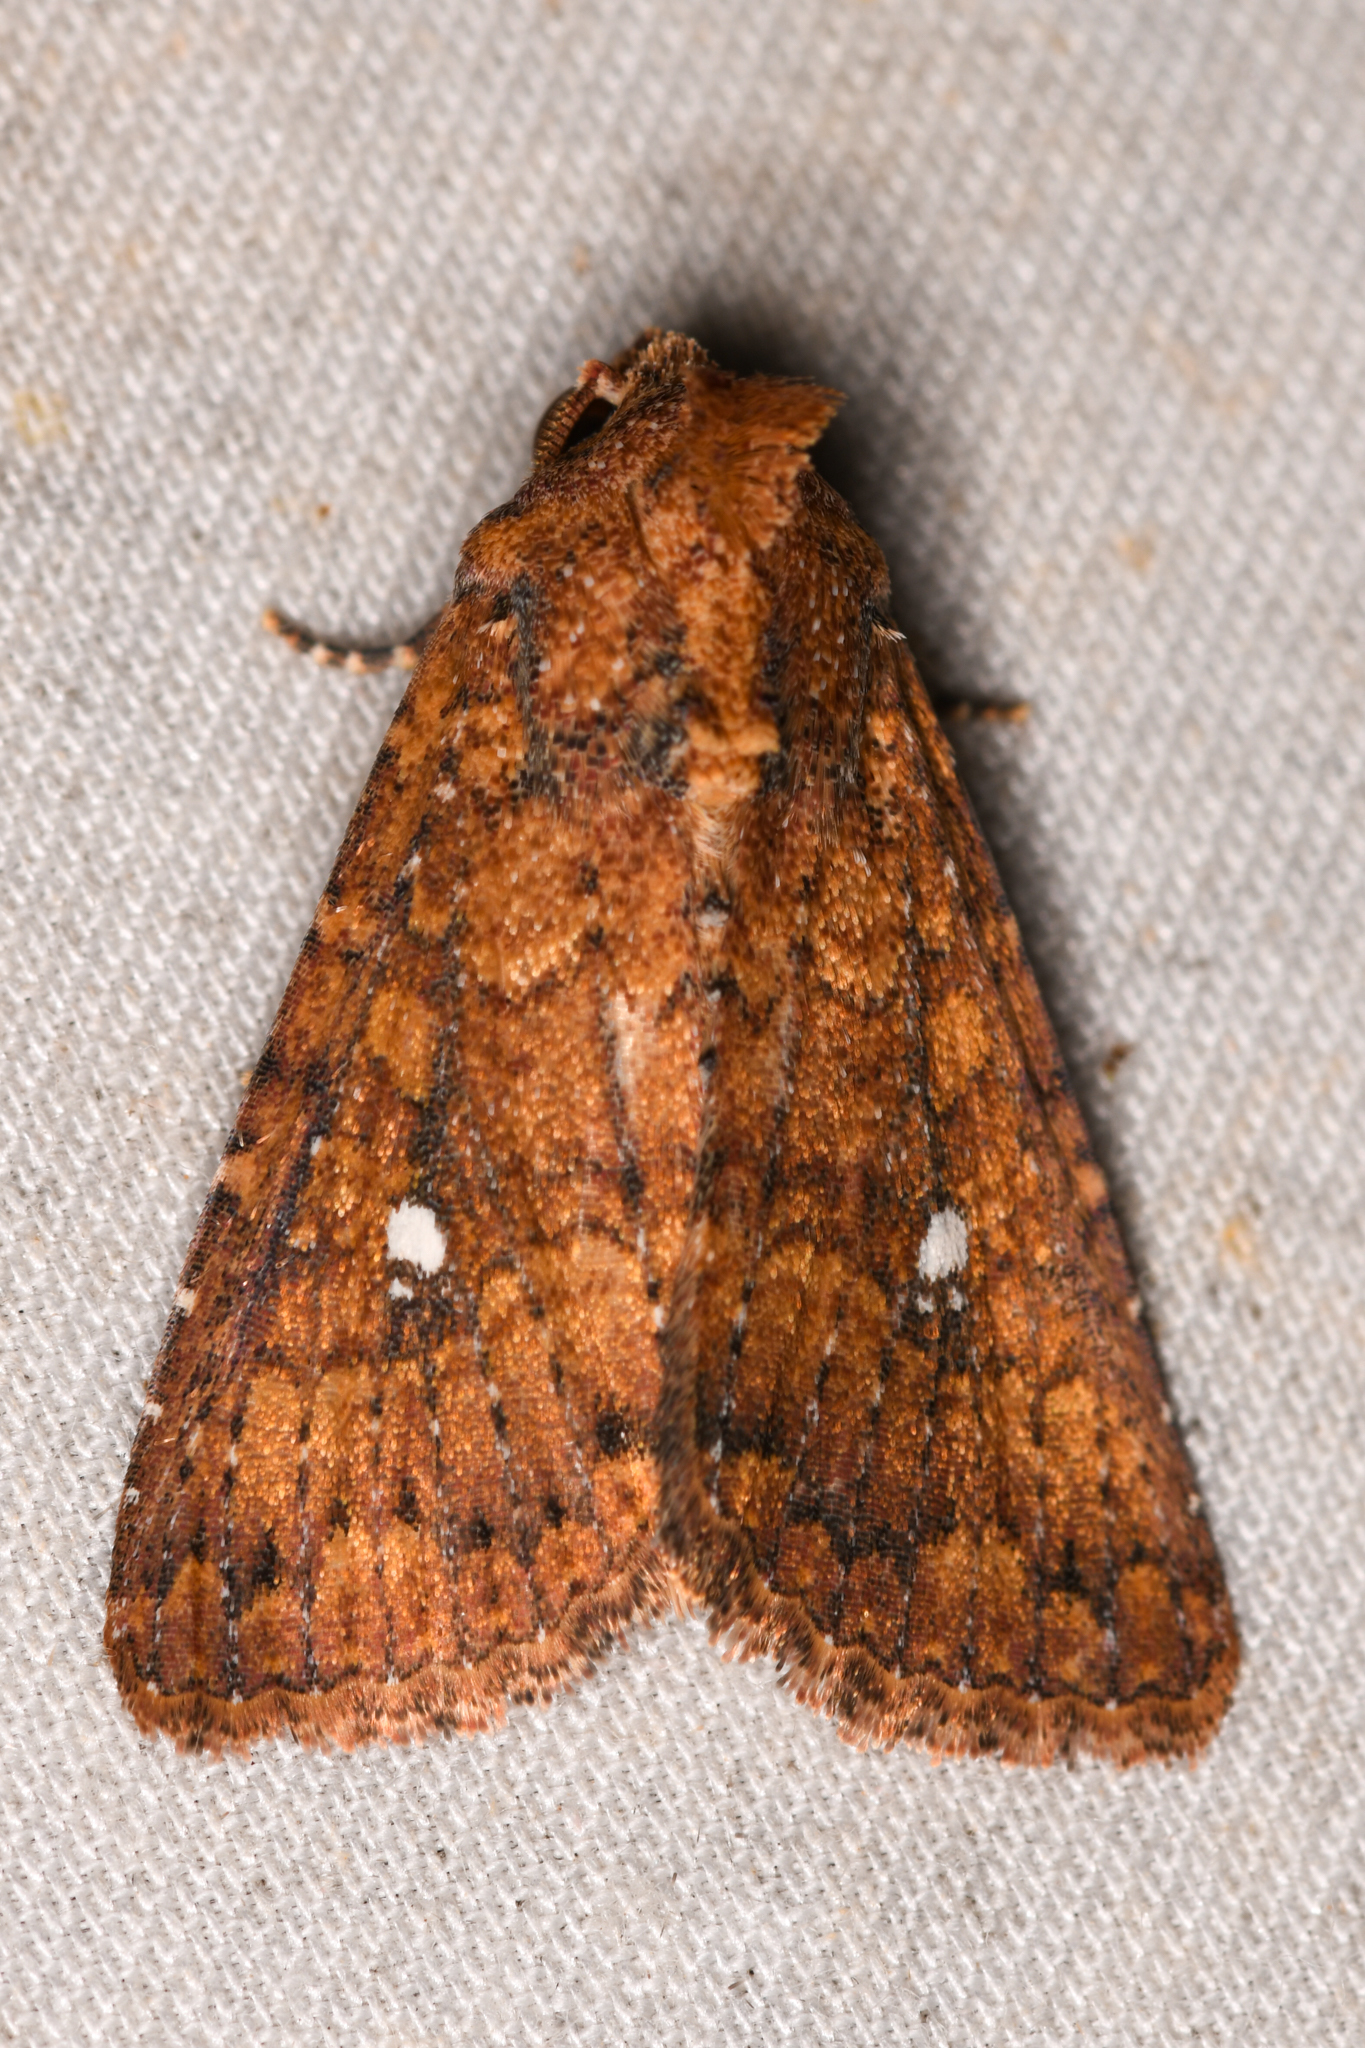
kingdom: Animalia
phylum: Arthropoda
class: Insecta
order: Lepidoptera
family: Noctuidae
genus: Condica
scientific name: Condica mobilis
